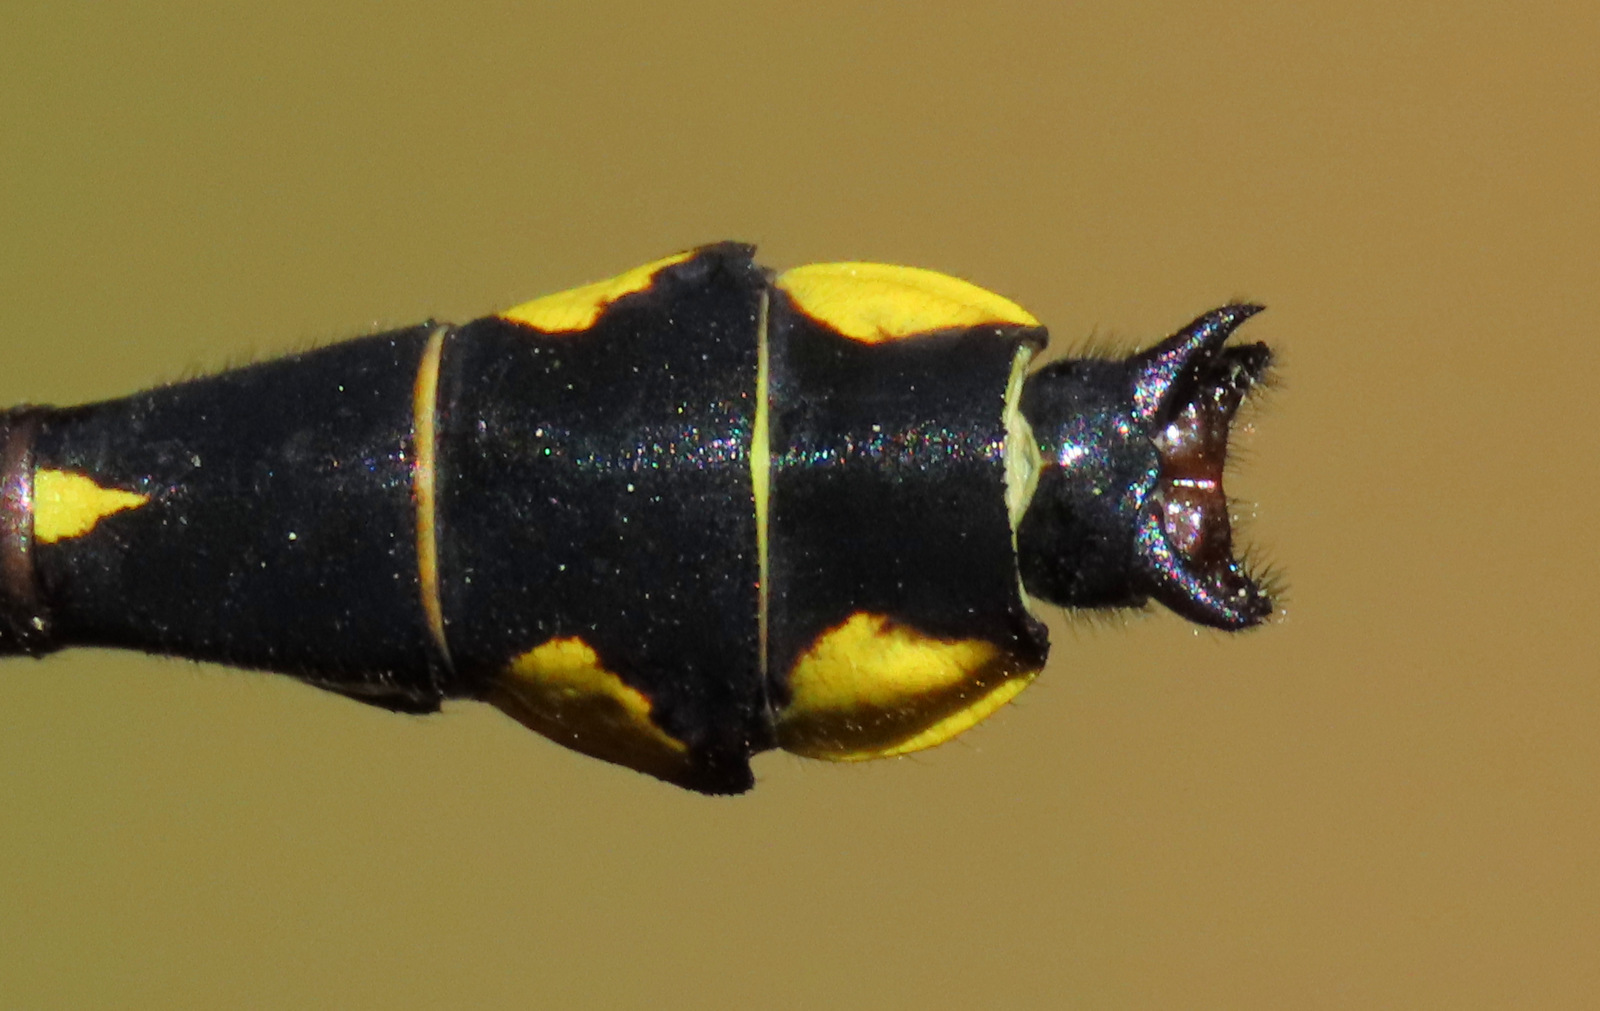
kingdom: Animalia
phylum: Arthropoda
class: Insecta
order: Odonata
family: Gomphidae
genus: Hylogomphus
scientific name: Hylogomphus abbreviatus
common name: Spine-crowned clubtail
